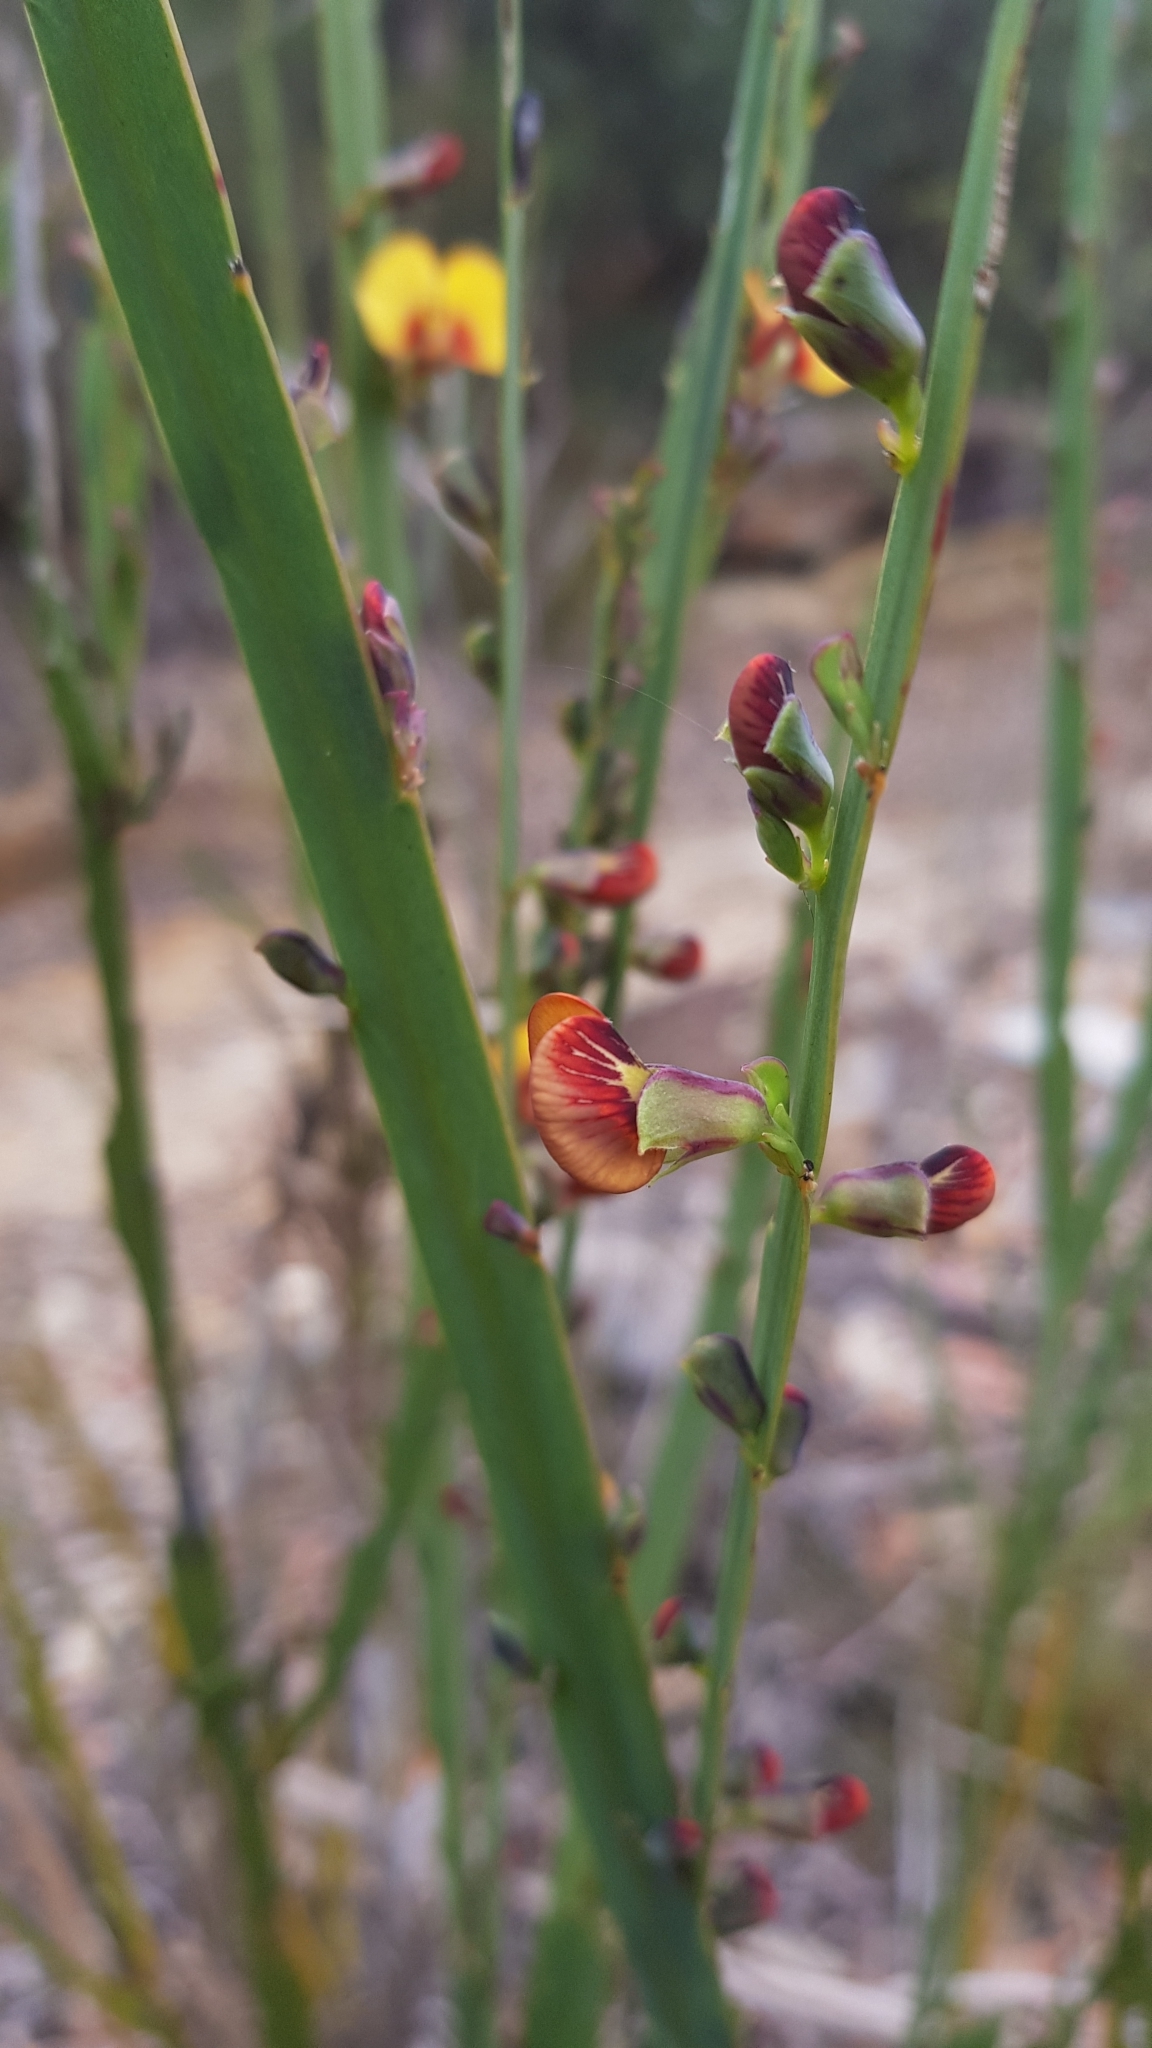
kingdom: Plantae
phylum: Tracheophyta
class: Magnoliopsida
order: Fabales
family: Fabaceae
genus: Bossiaea
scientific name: Bossiaea scolopendria
